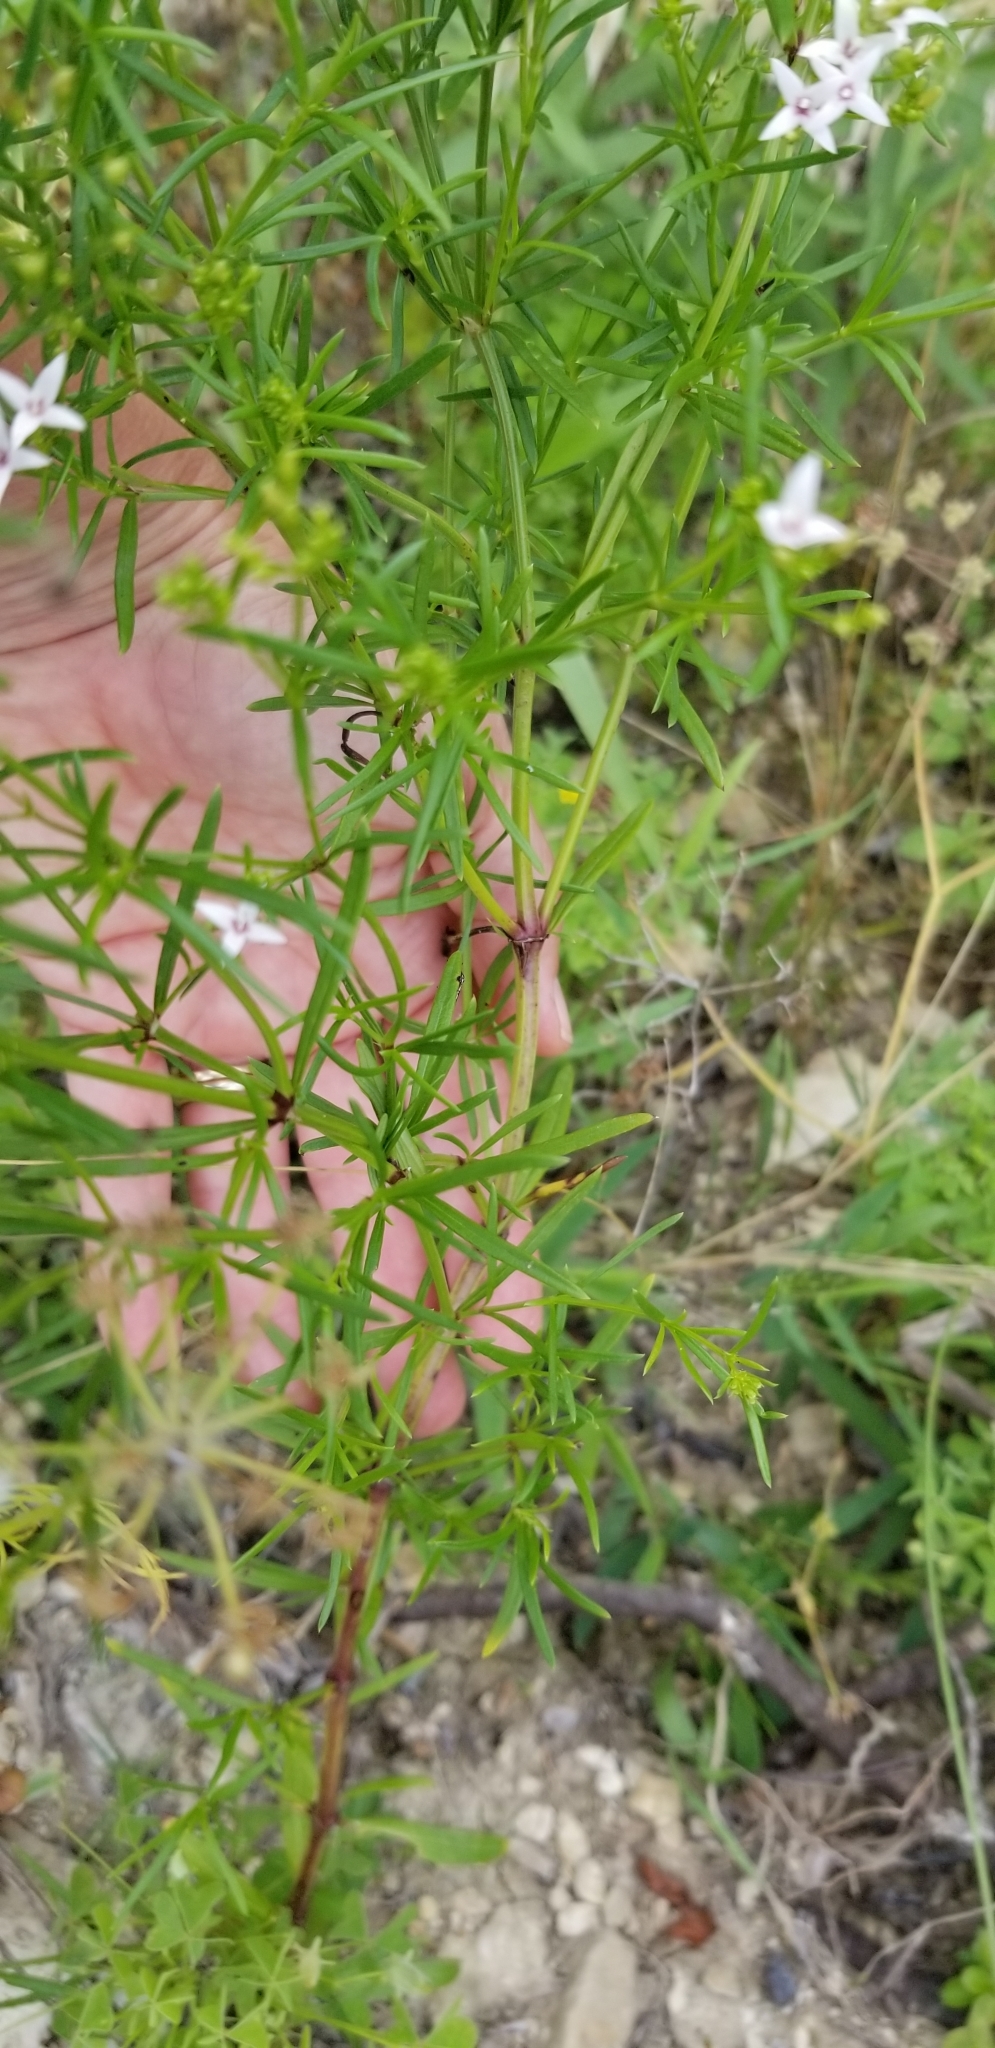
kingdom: Plantae
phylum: Tracheophyta
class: Magnoliopsida
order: Gentianales
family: Rubiaceae
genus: Stenaria
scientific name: Stenaria nigricans
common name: Diamondflowers
